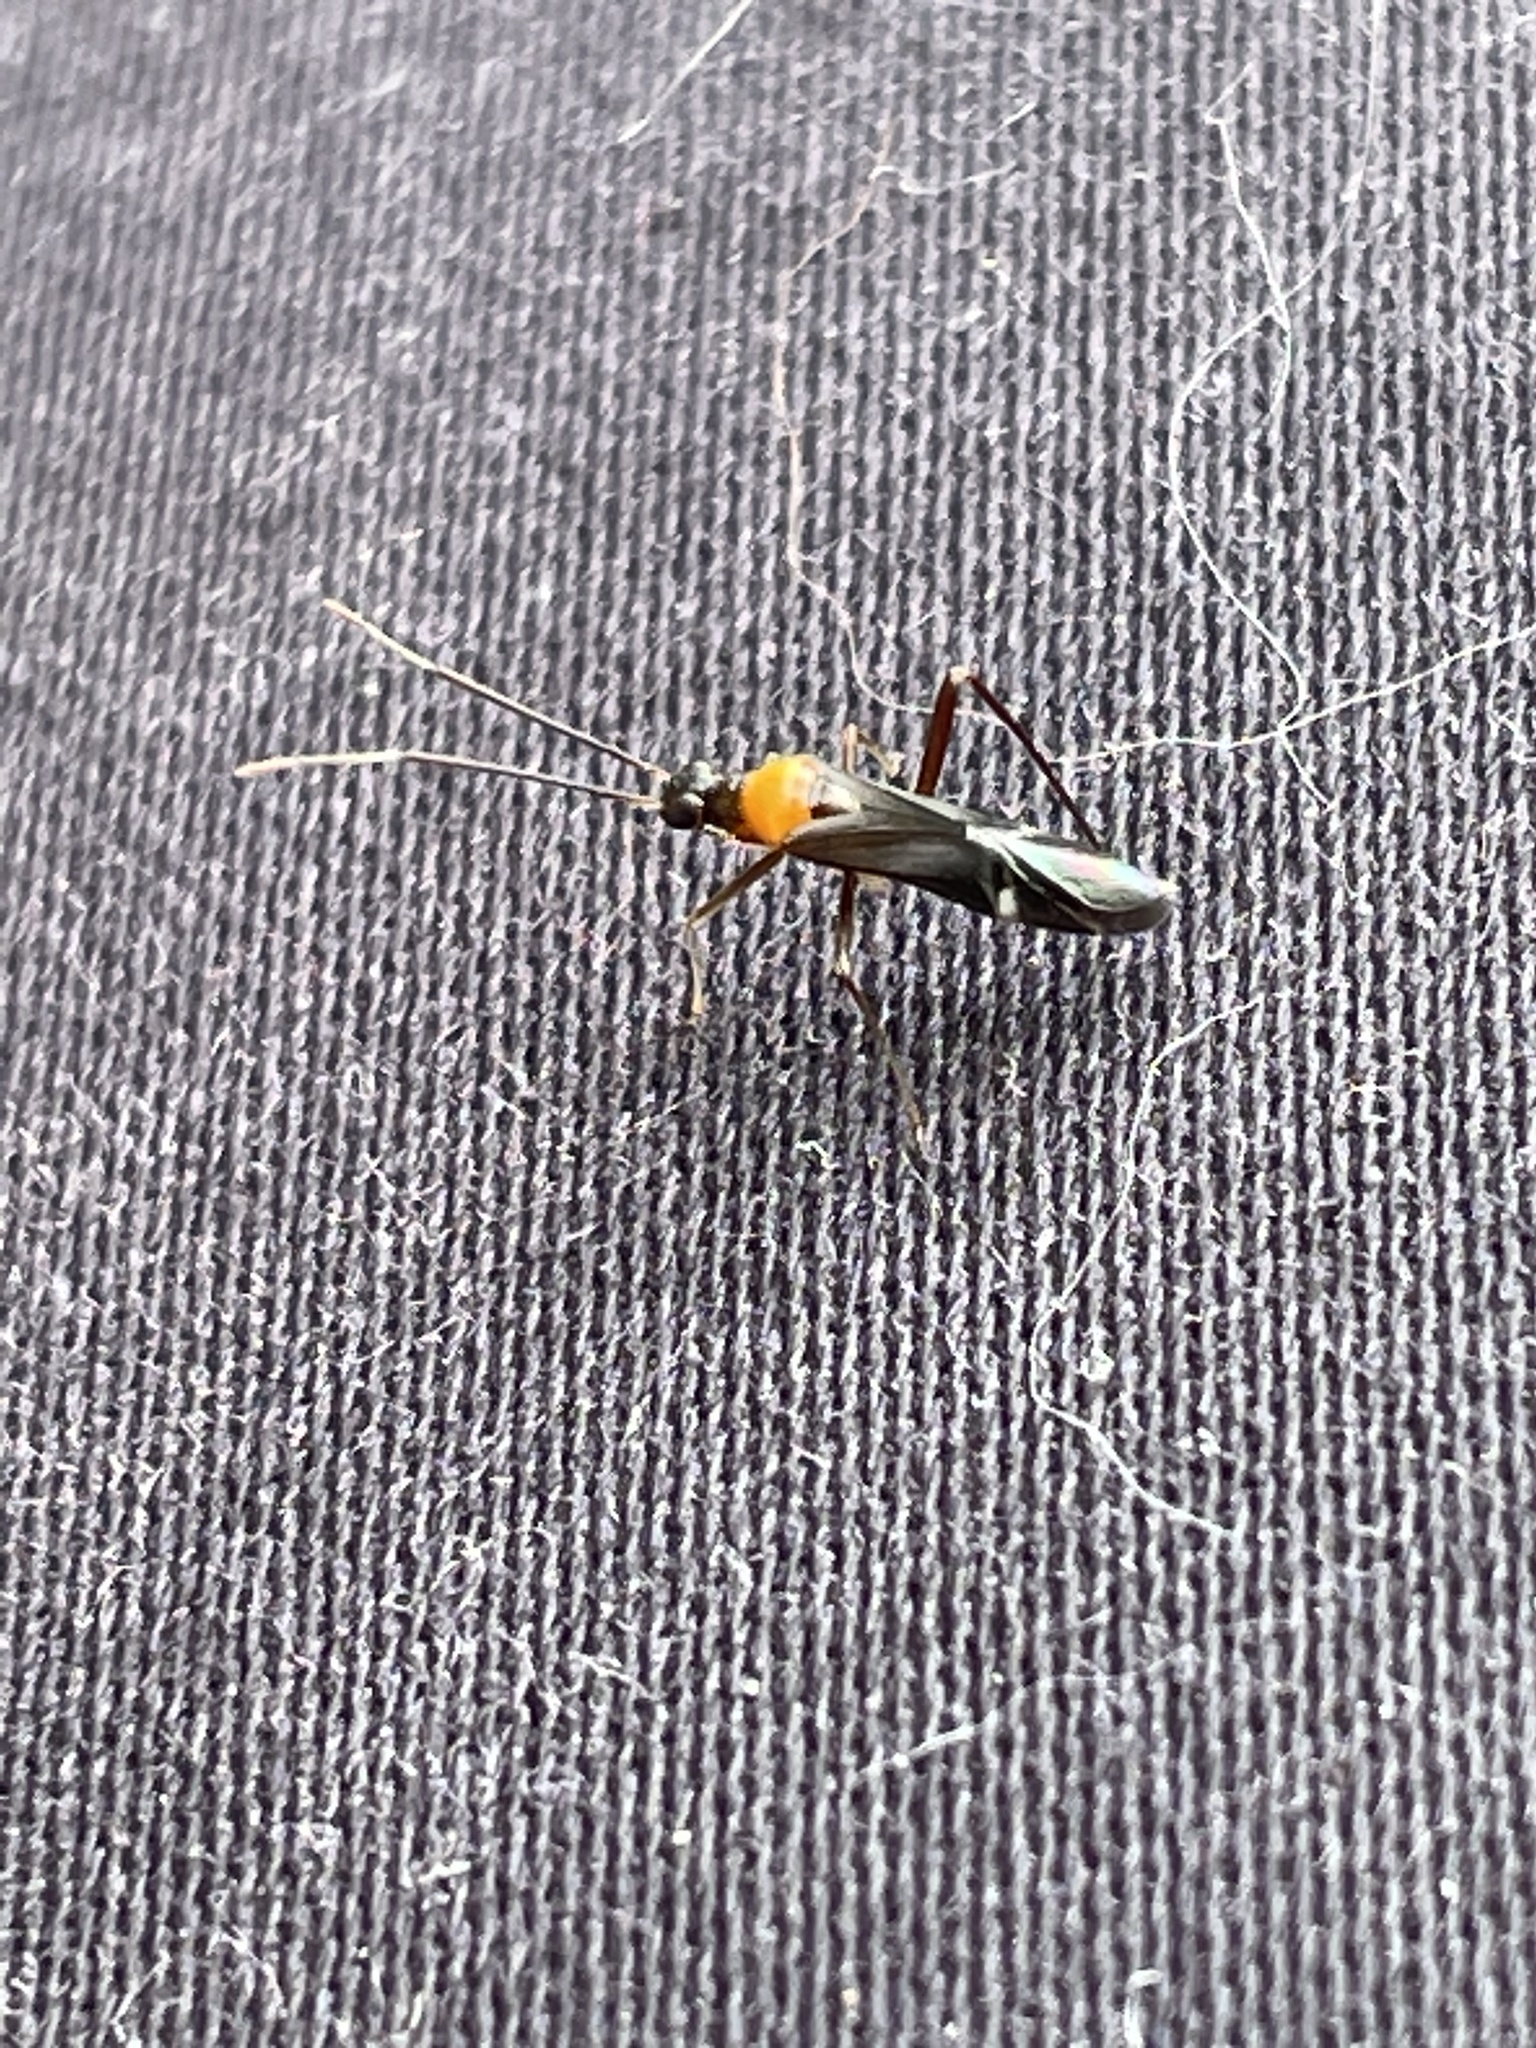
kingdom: Animalia
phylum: Arthropoda
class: Insecta
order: Hemiptera
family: Miridae
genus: Pseudoxenetus
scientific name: Pseudoxenetus regalis
